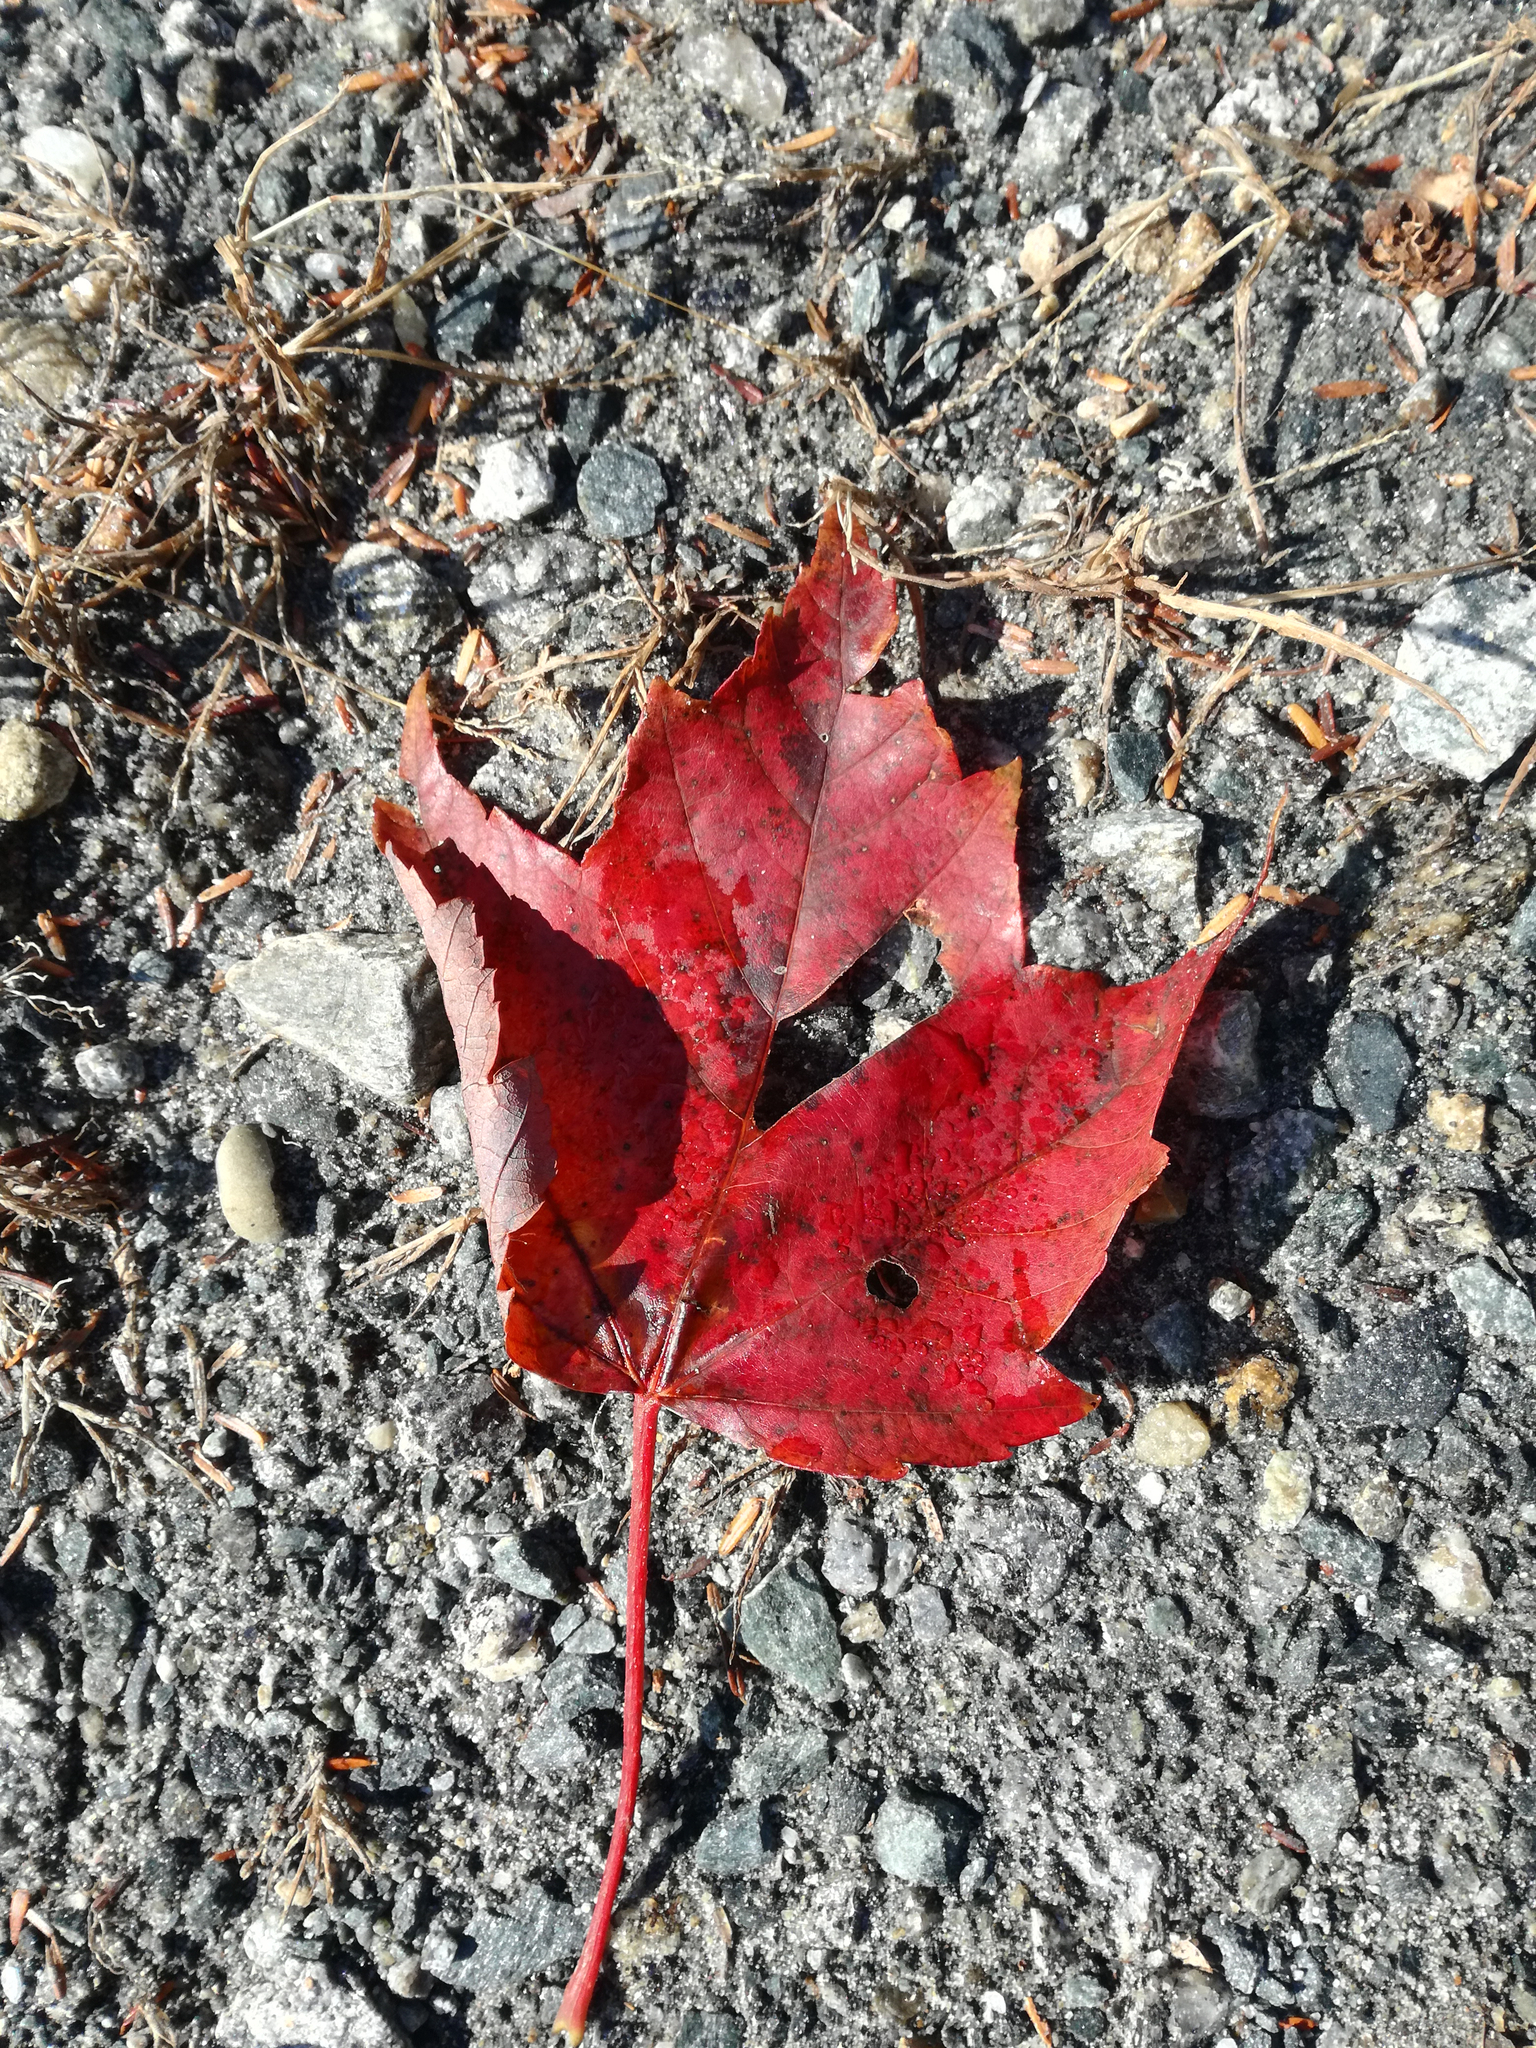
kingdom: Plantae
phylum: Tracheophyta
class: Magnoliopsida
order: Sapindales
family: Sapindaceae
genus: Acer
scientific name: Acer rubrum
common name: Red maple
